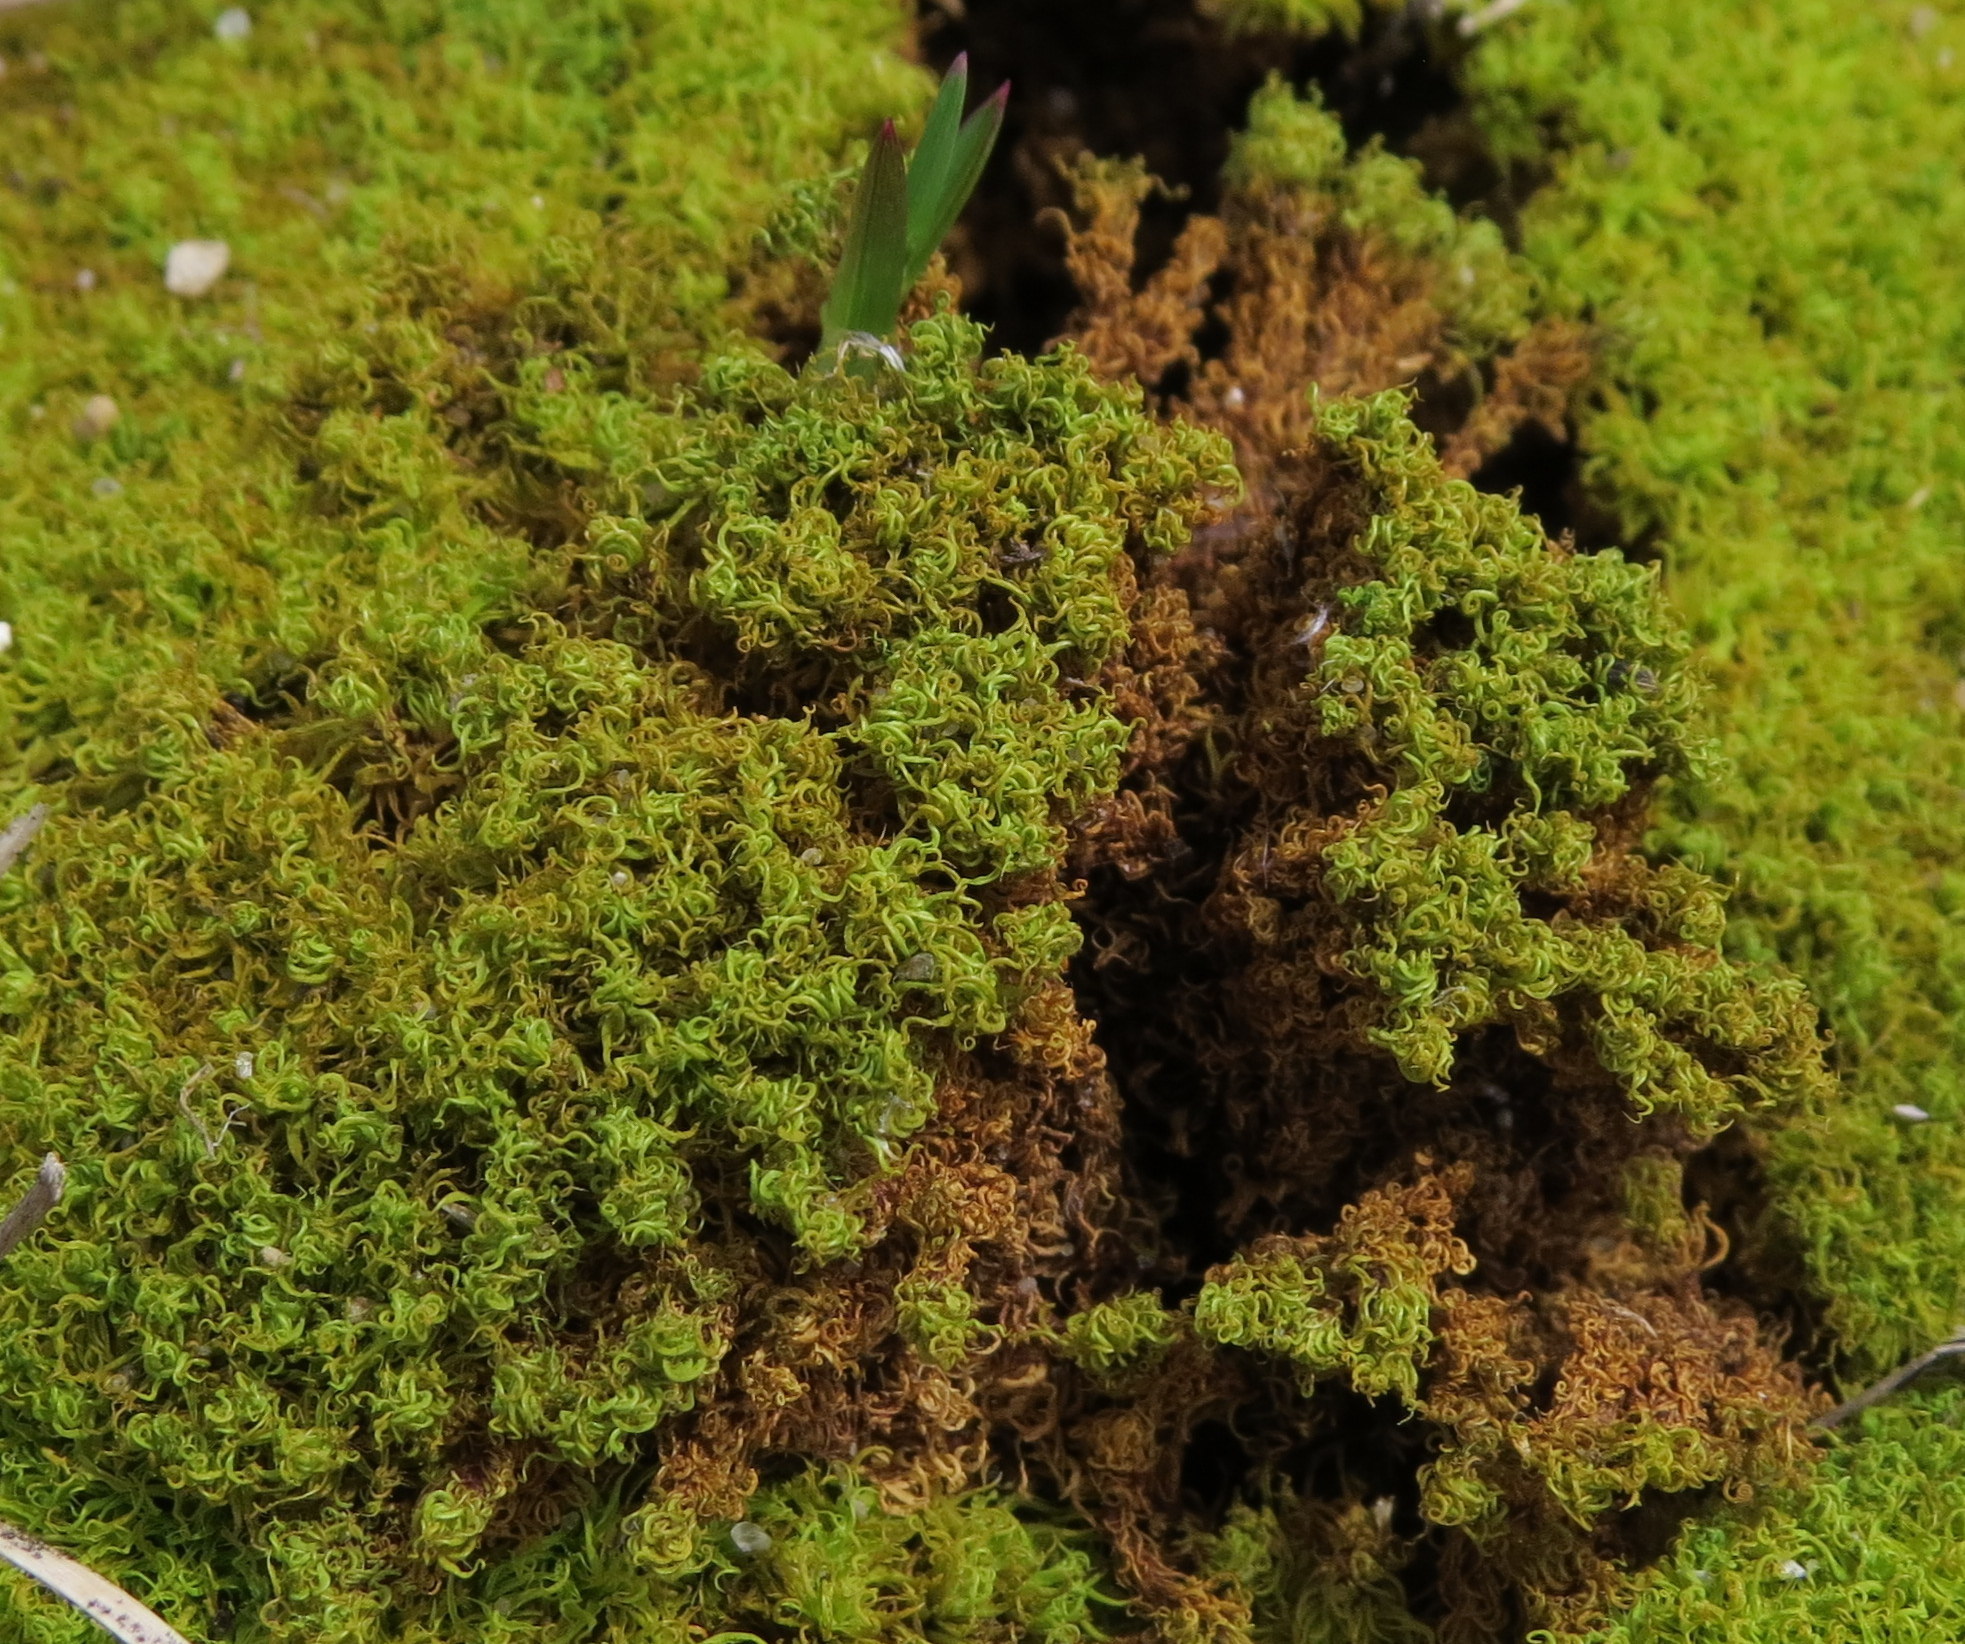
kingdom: Plantae
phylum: Bryophyta
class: Bryopsida
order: Pottiales
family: Pottiaceae
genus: Tortella
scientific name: Tortella
